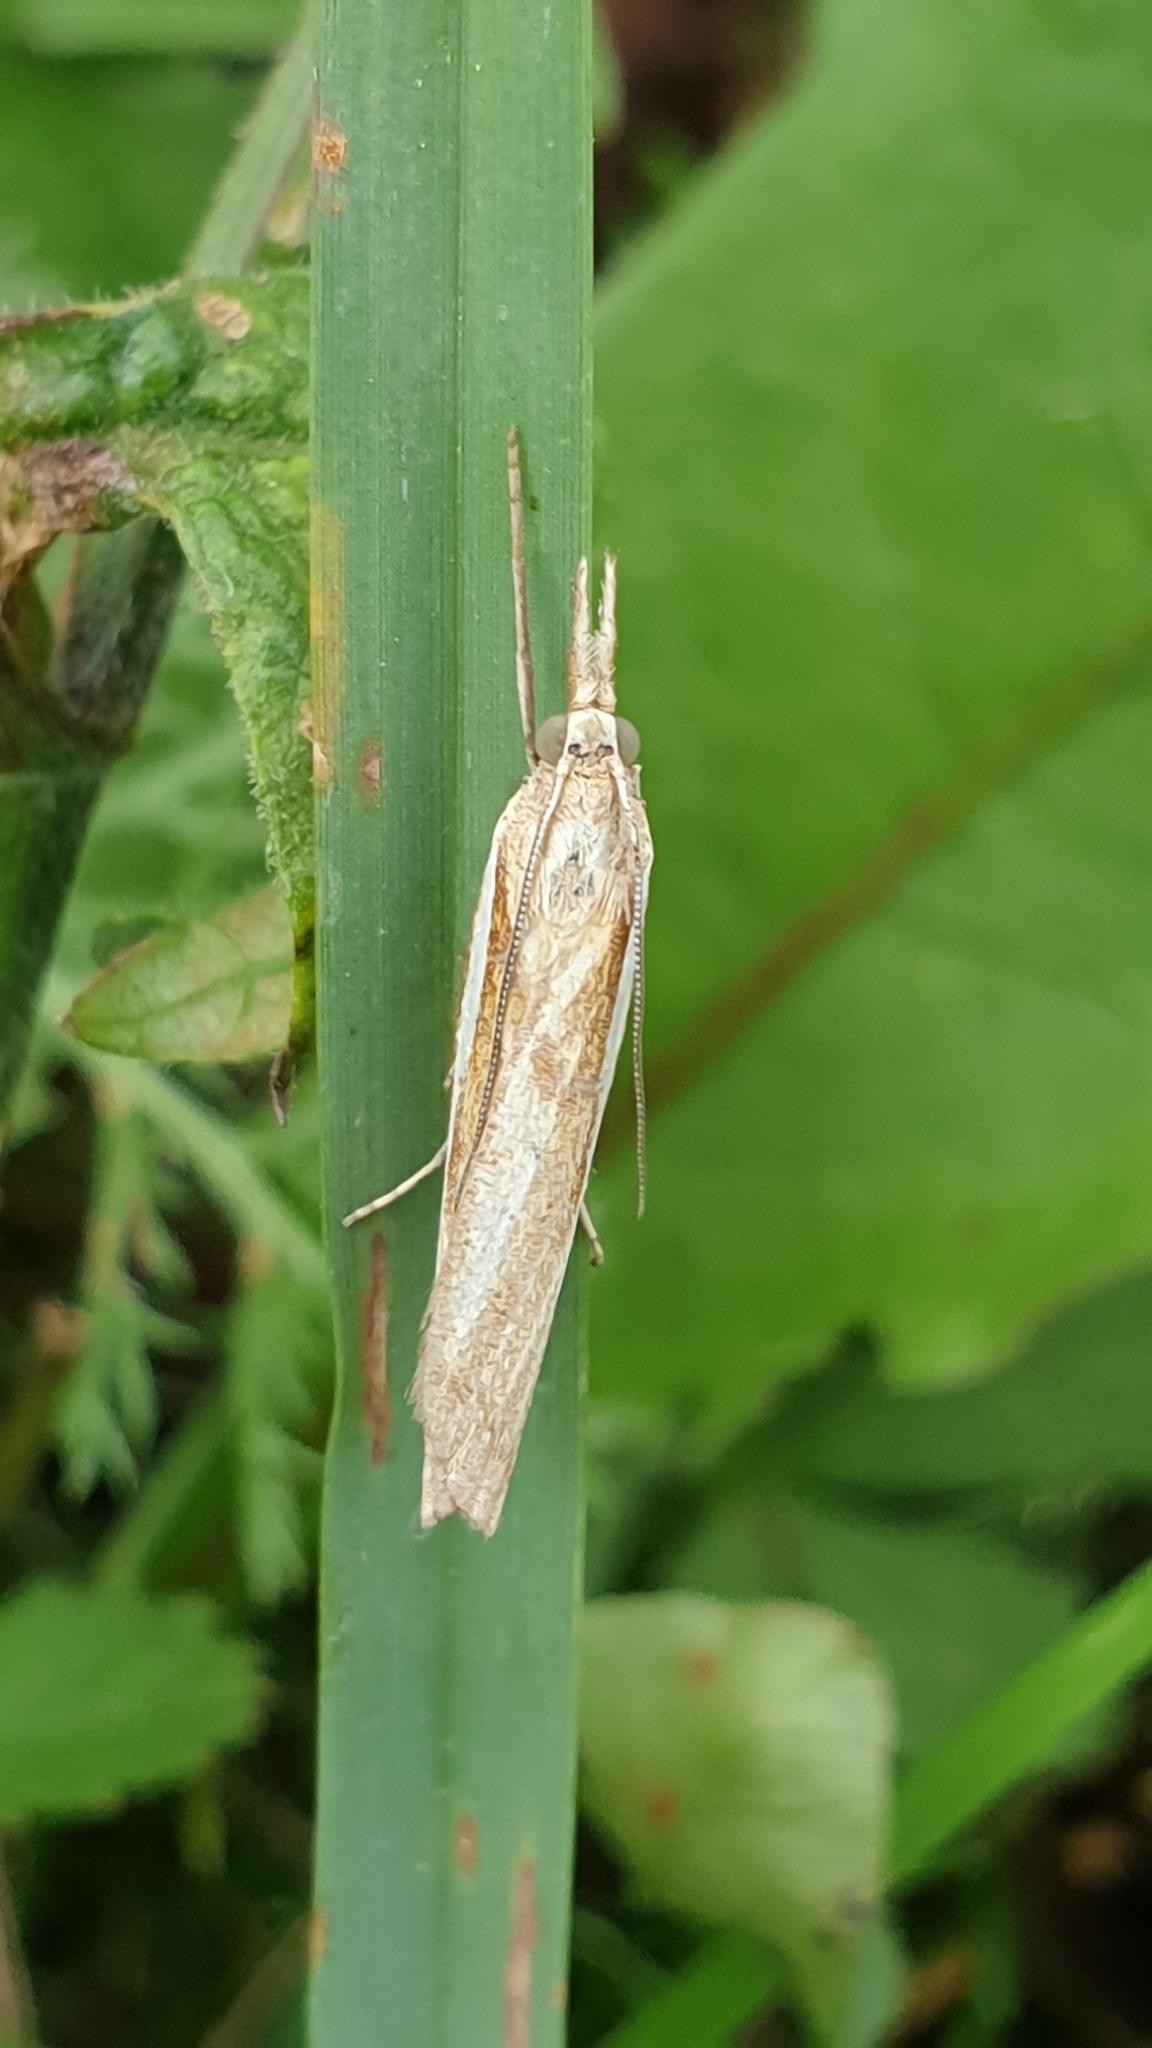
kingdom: Animalia
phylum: Arthropoda
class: Insecta
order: Lepidoptera
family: Crambidae
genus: Agriphila
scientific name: Agriphila tristellus
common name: Common grass-veneer
